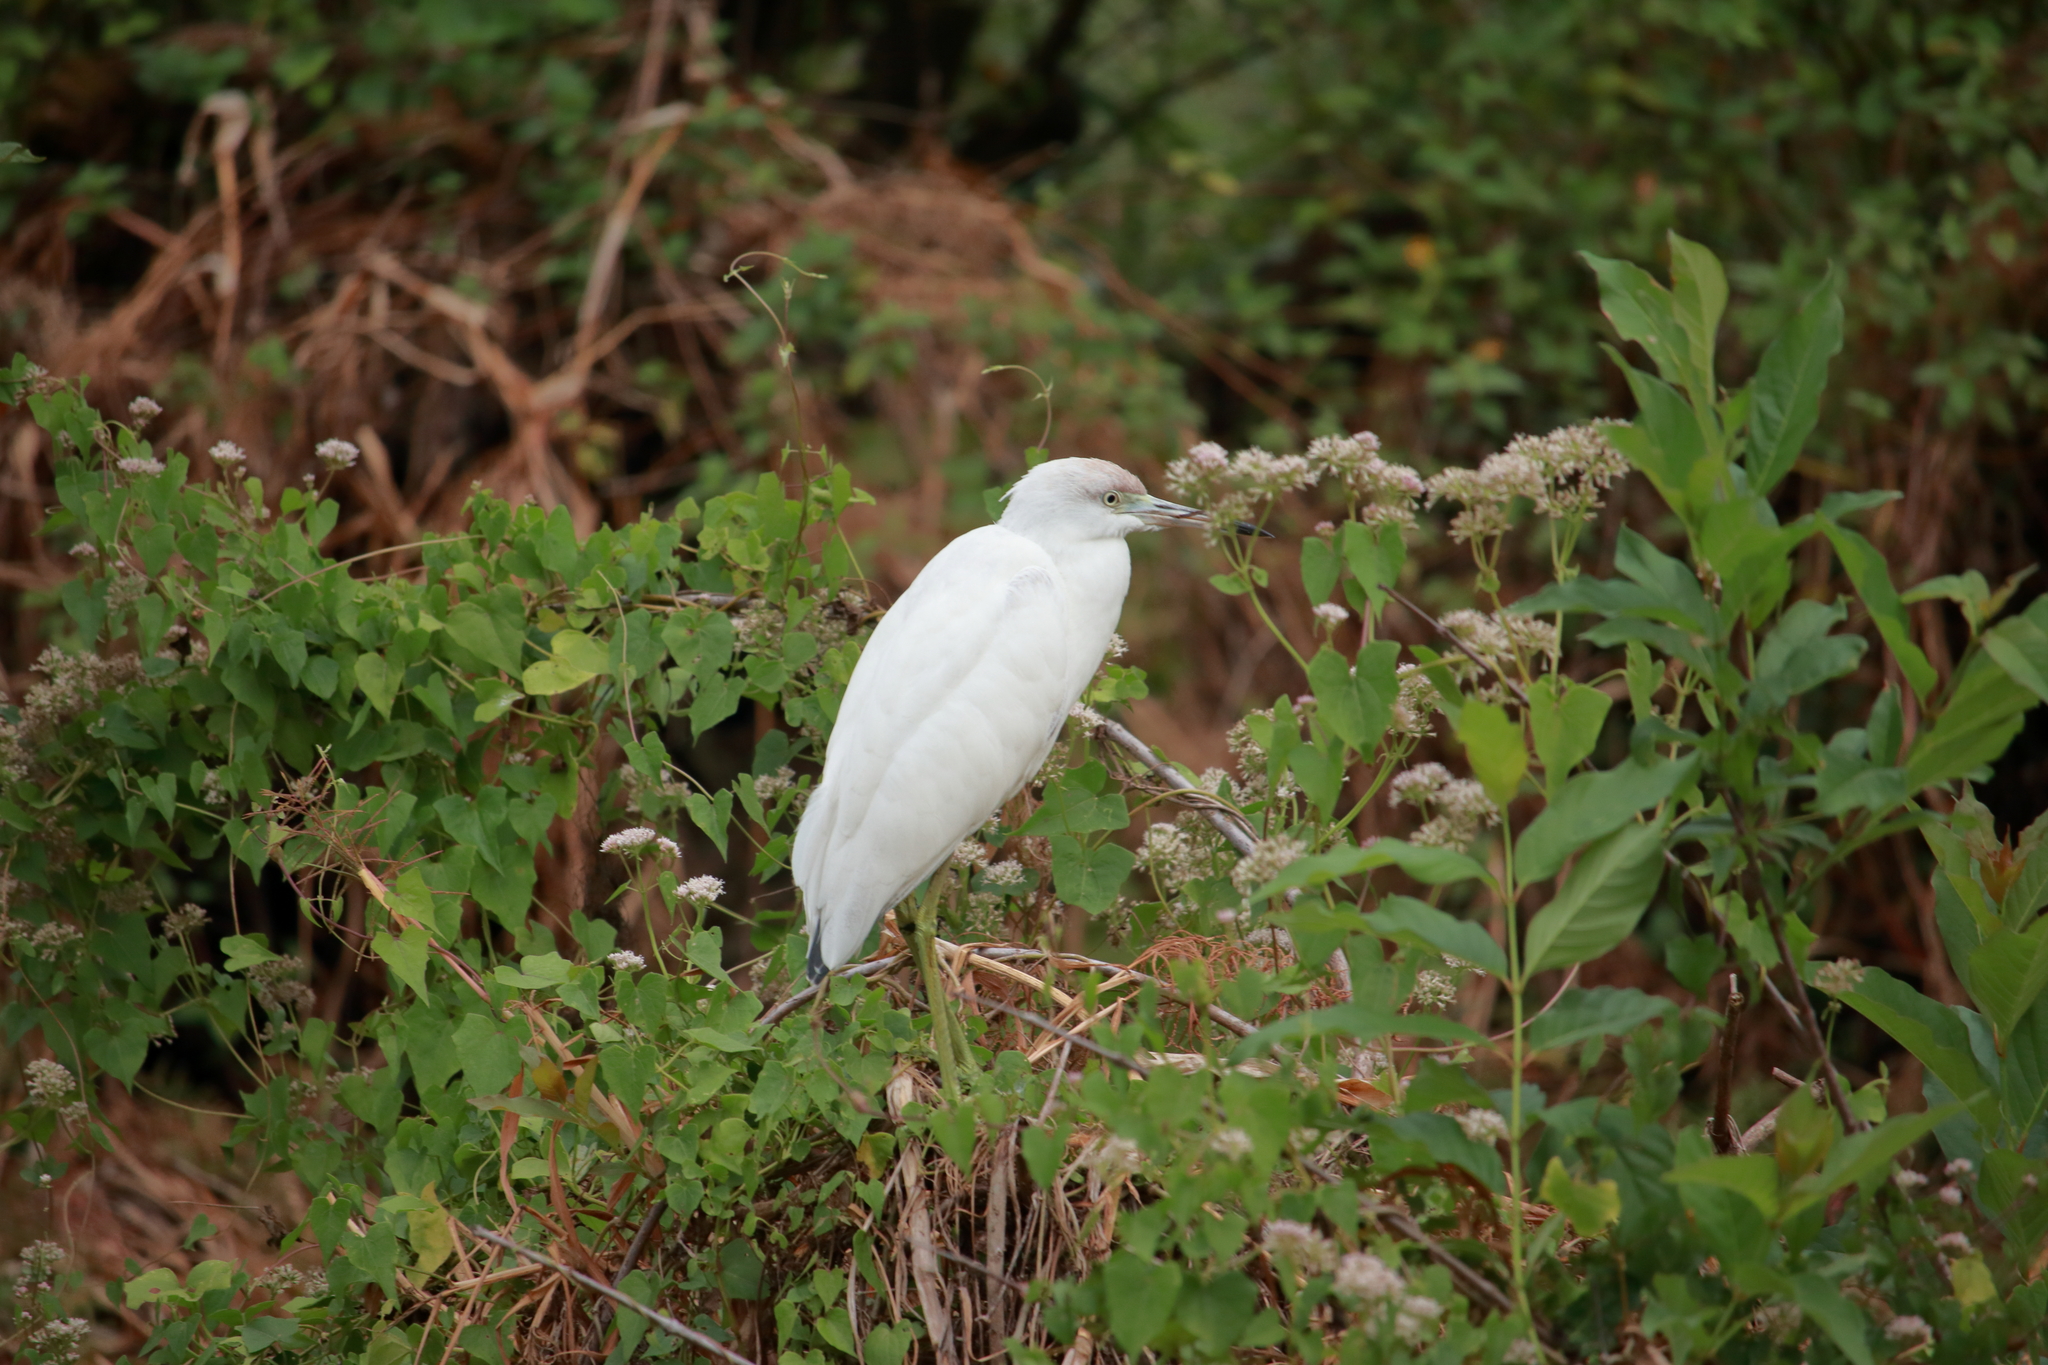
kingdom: Animalia
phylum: Chordata
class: Aves
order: Pelecaniformes
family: Ardeidae
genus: Egretta
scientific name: Egretta caerulea
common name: Little blue heron
